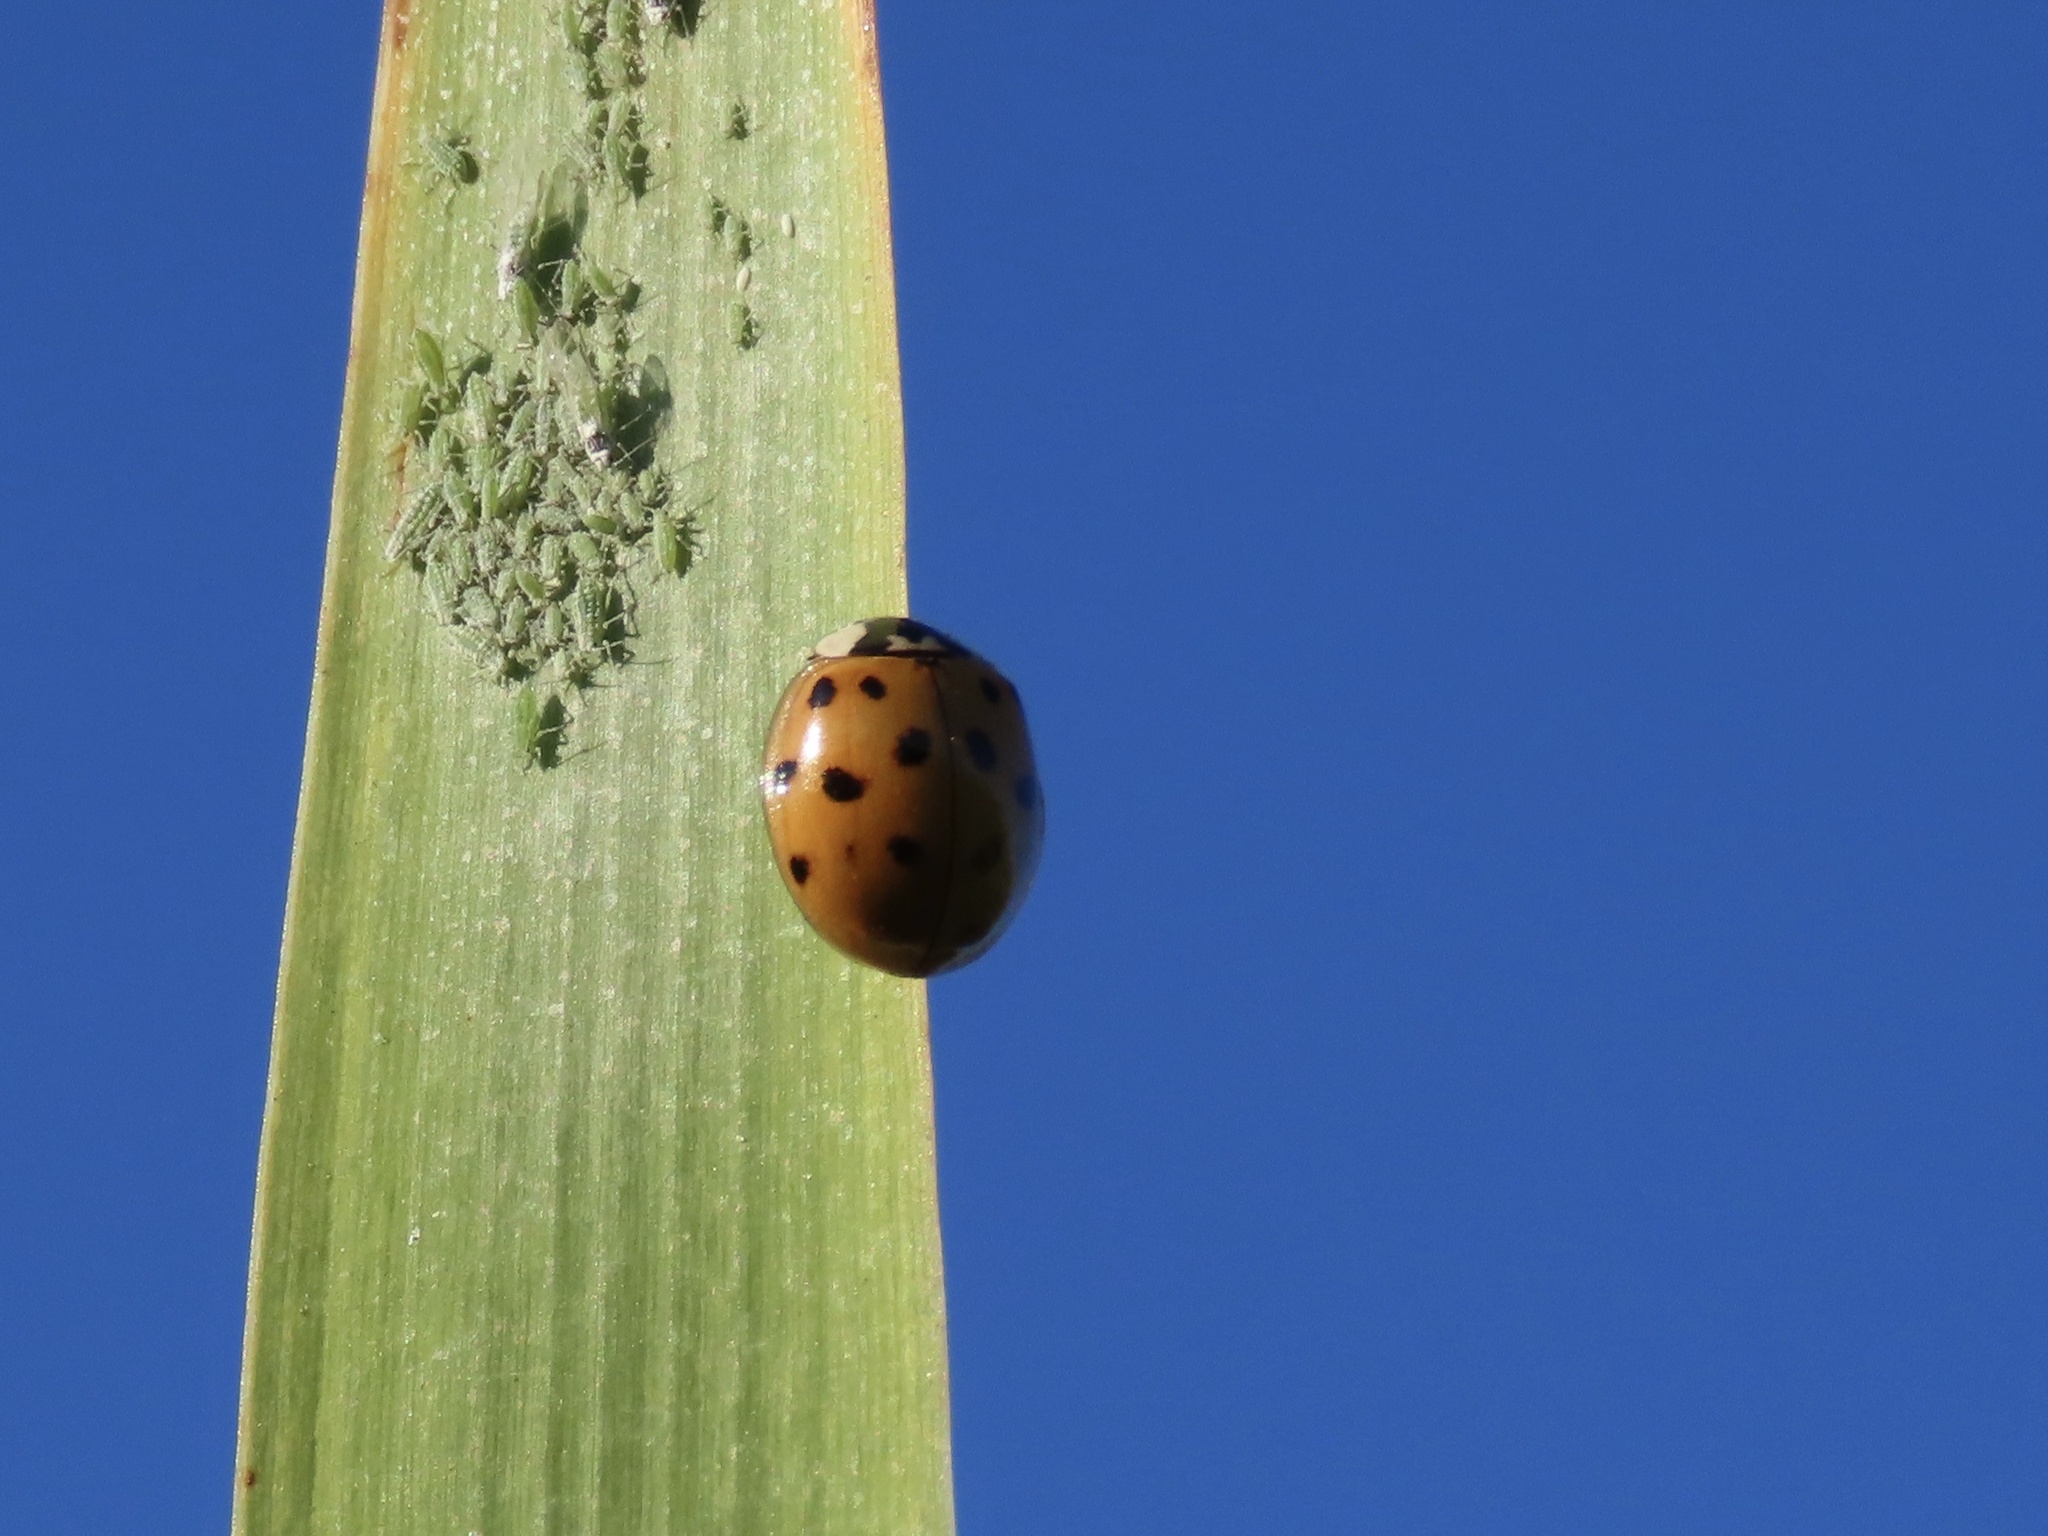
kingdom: Animalia
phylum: Arthropoda
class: Insecta
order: Coleoptera
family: Coccinellidae
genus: Harmonia
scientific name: Harmonia axyridis
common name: Harlequin ladybird
